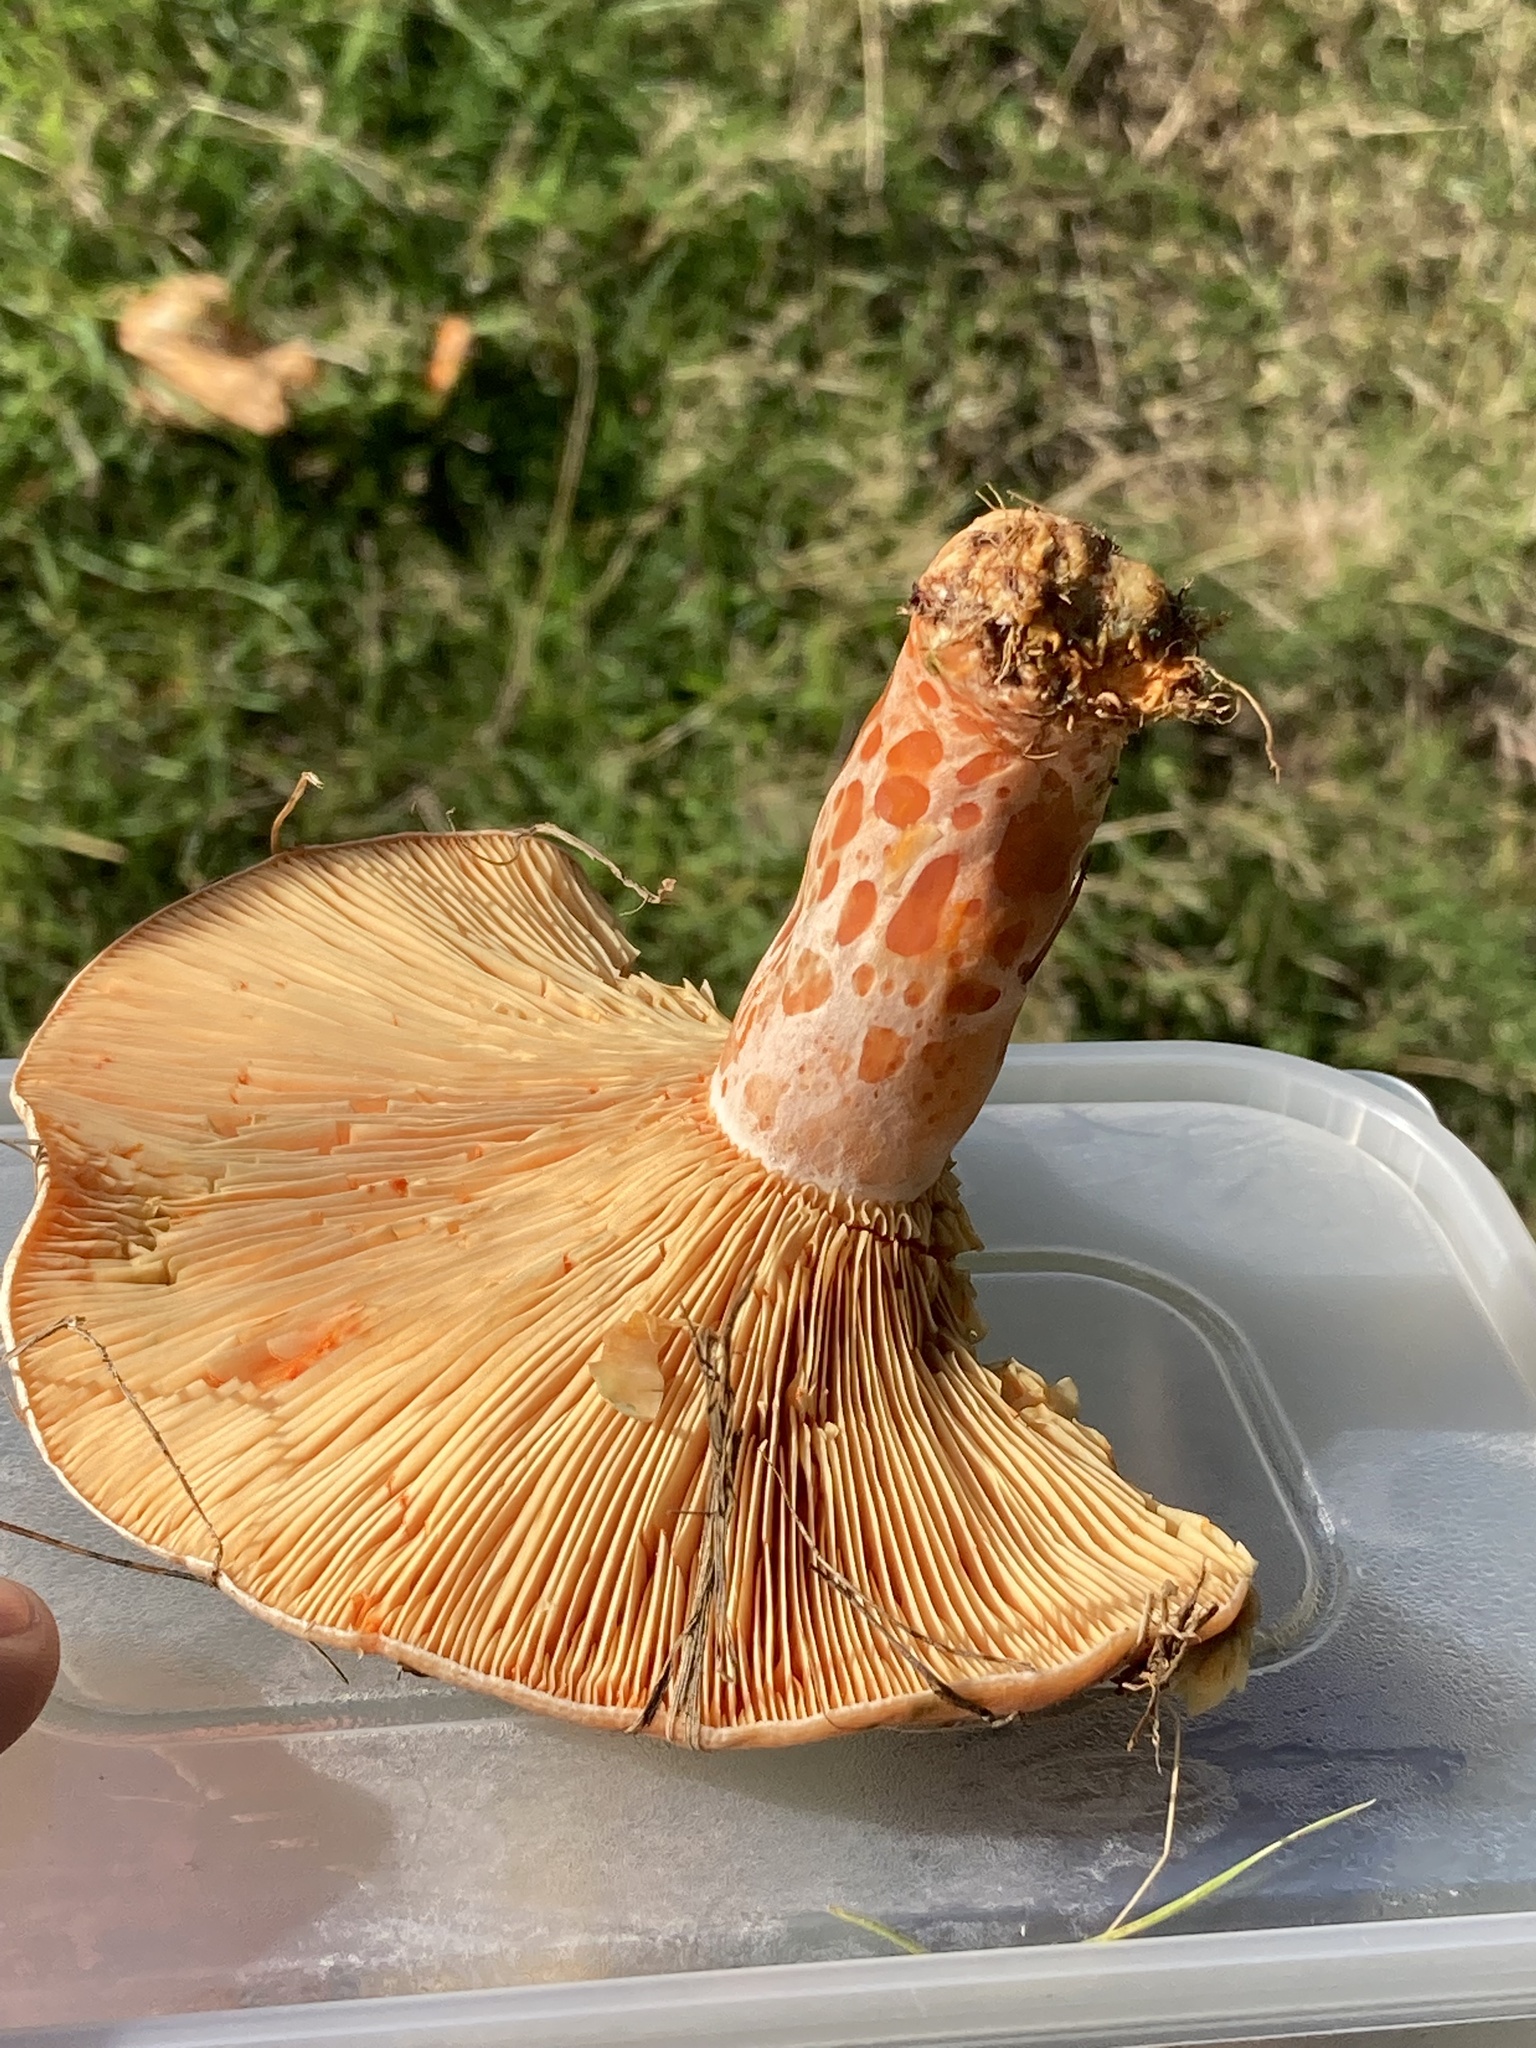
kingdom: Fungi
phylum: Basidiomycota
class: Agaricomycetes
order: Russulales
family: Russulaceae
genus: Lactarius
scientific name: Lactarius deliciosus
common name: Saffron milk-cap
